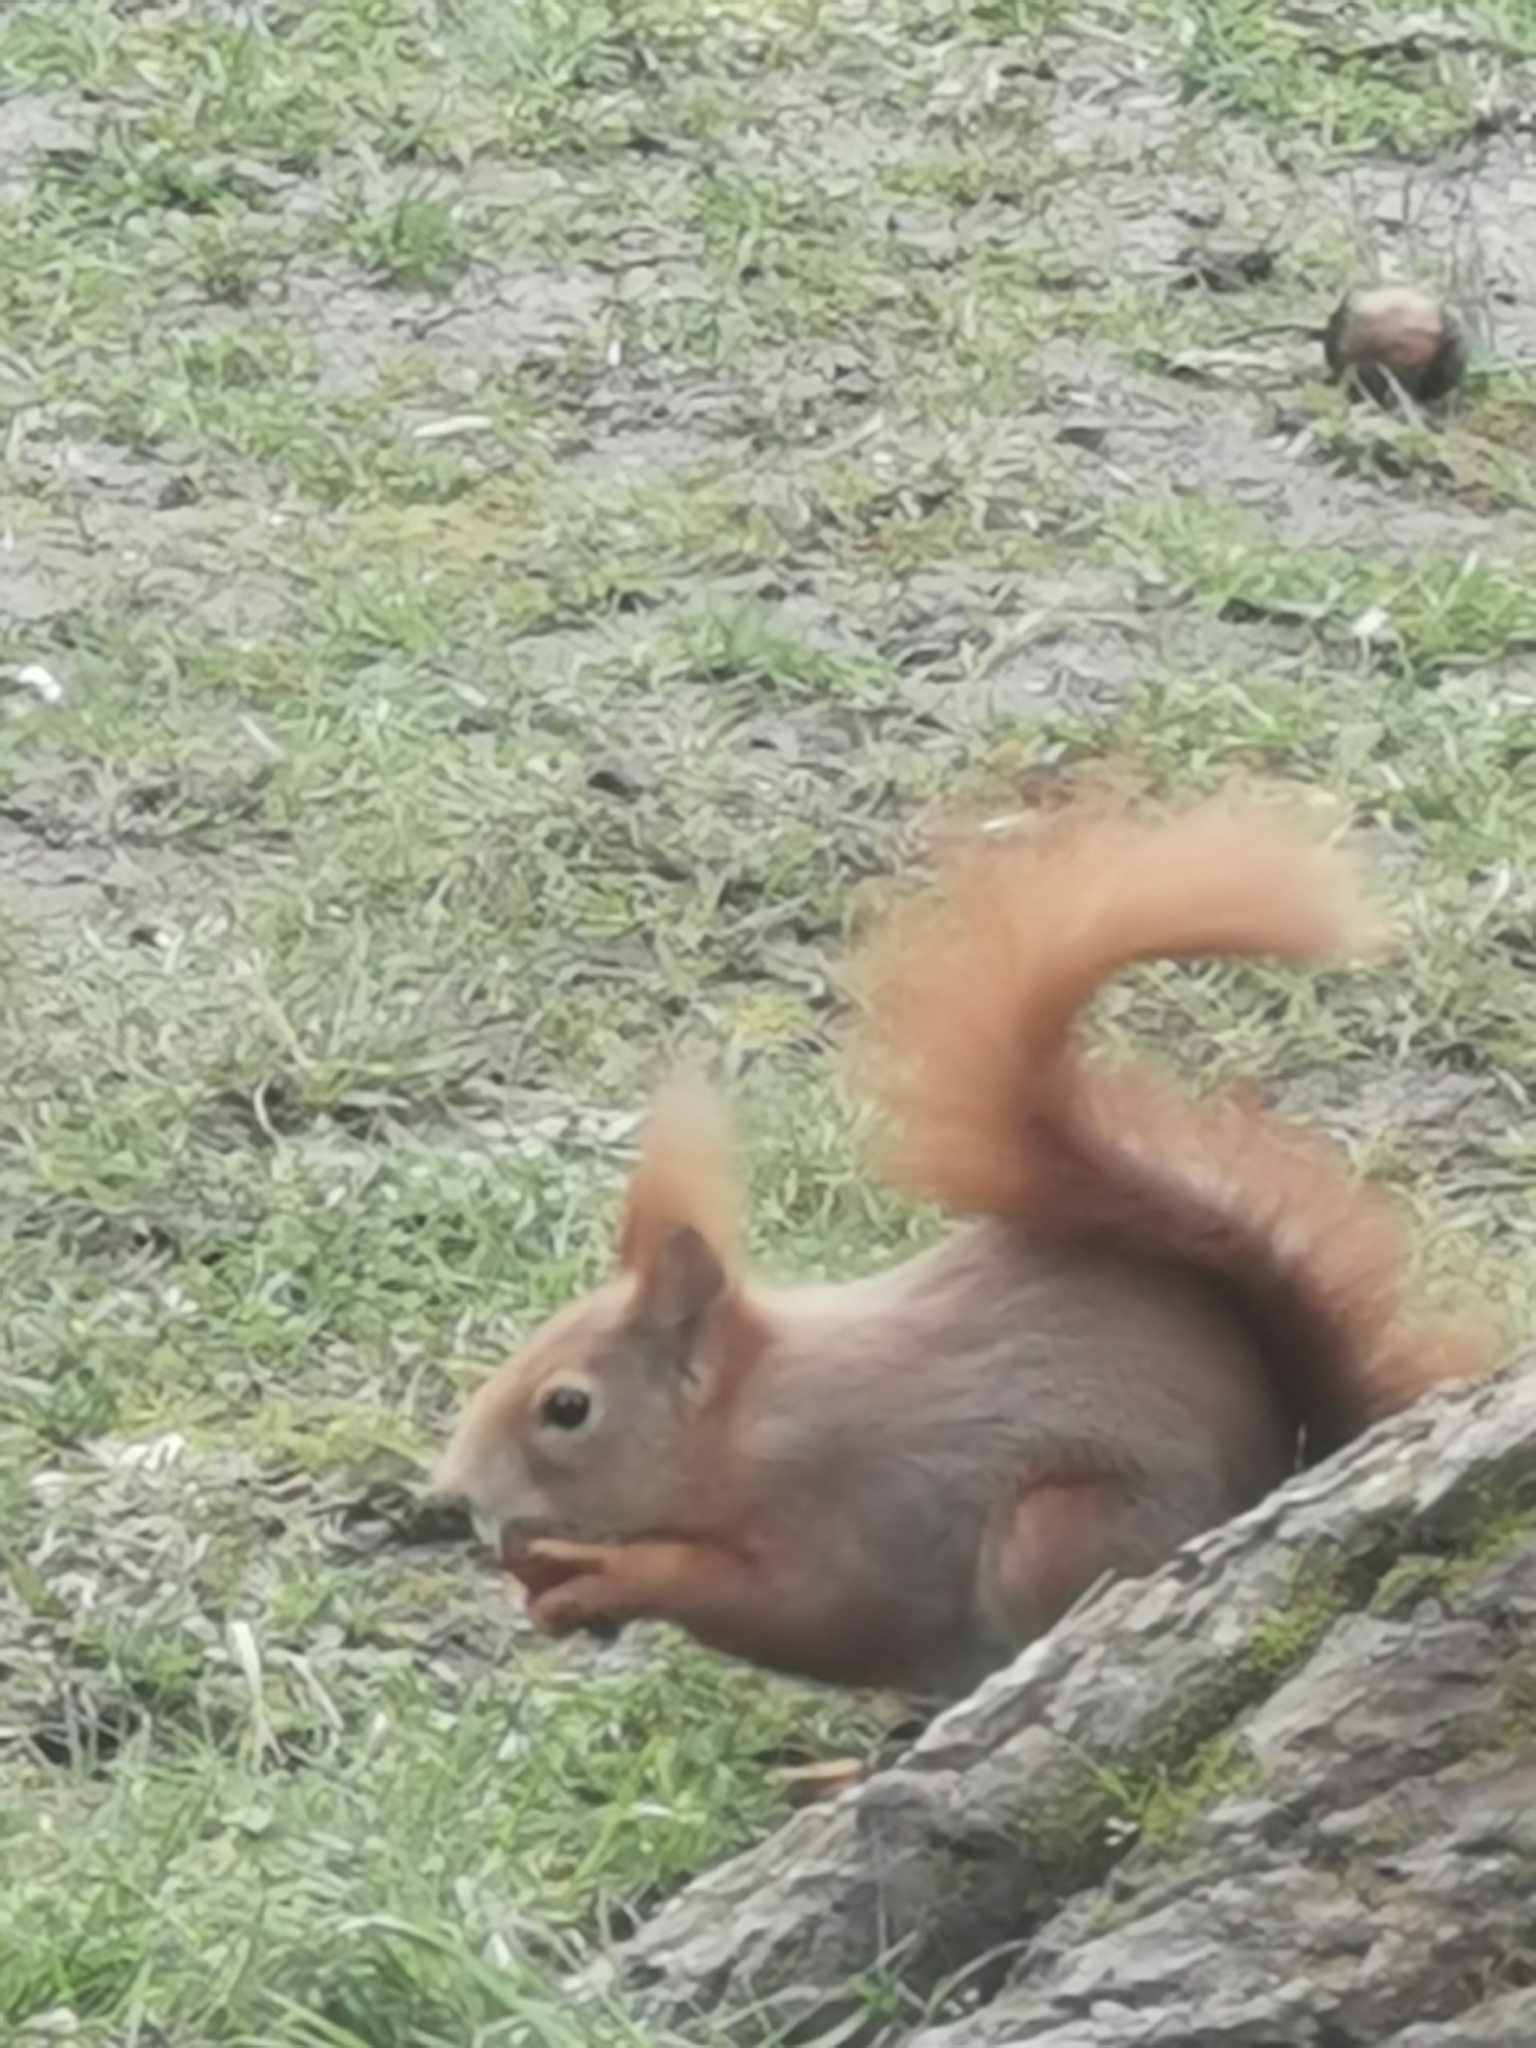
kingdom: Animalia
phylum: Chordata
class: Mammalia
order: Rodentia
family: Sciuridae
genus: Sciurus
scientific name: Sciurus vulgaris
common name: Eurasian red squirrel
